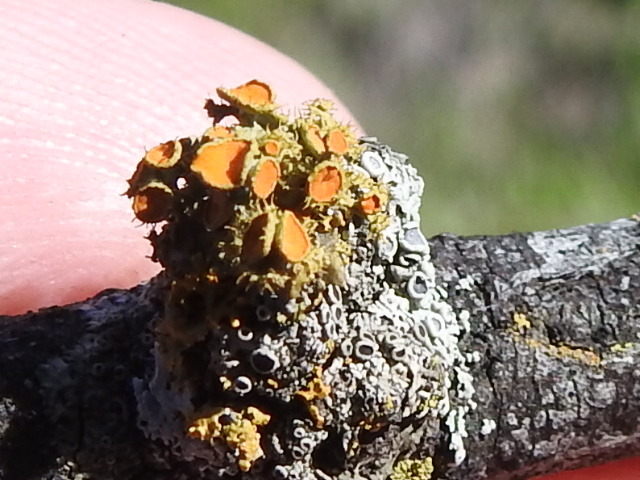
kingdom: Fungi
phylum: Ascomycota
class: Lecanoromycetes
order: Teloschistales
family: Teloschistaceae
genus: Niorma
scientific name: Niorma chrysophthalma
